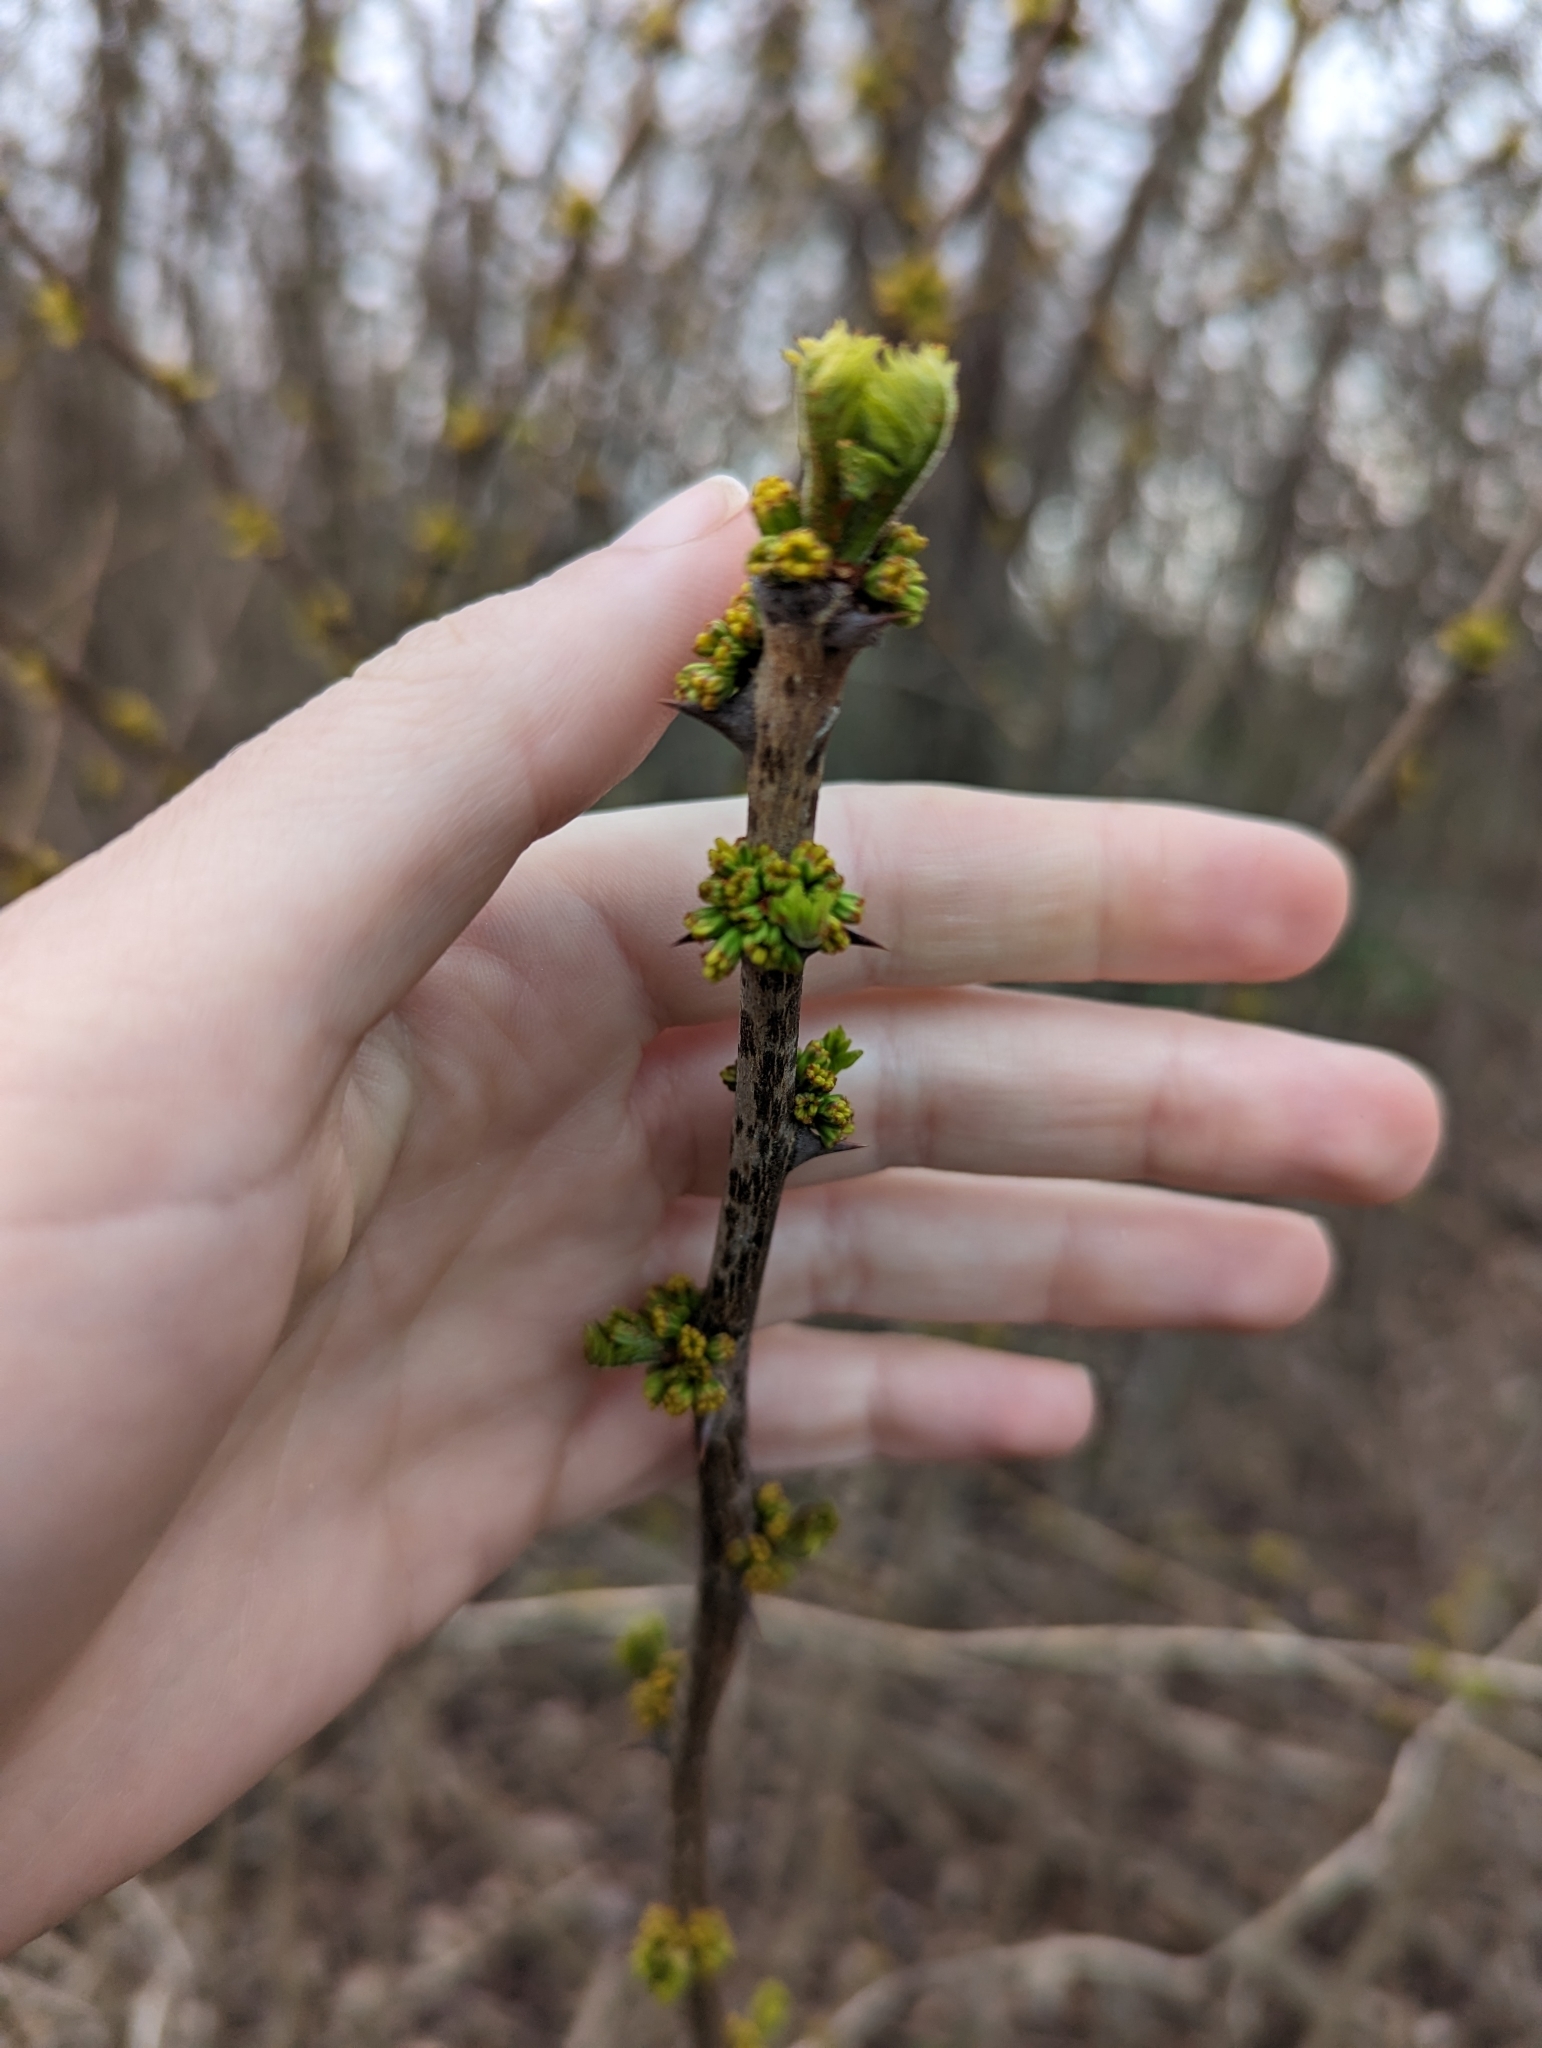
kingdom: Plantae
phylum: Tracheophyta
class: Magnoliopsida
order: Sapindales
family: Rutaceae
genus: Zanthoxylum
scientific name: Zanthoxylum americanum
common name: Northern prickly-ash
